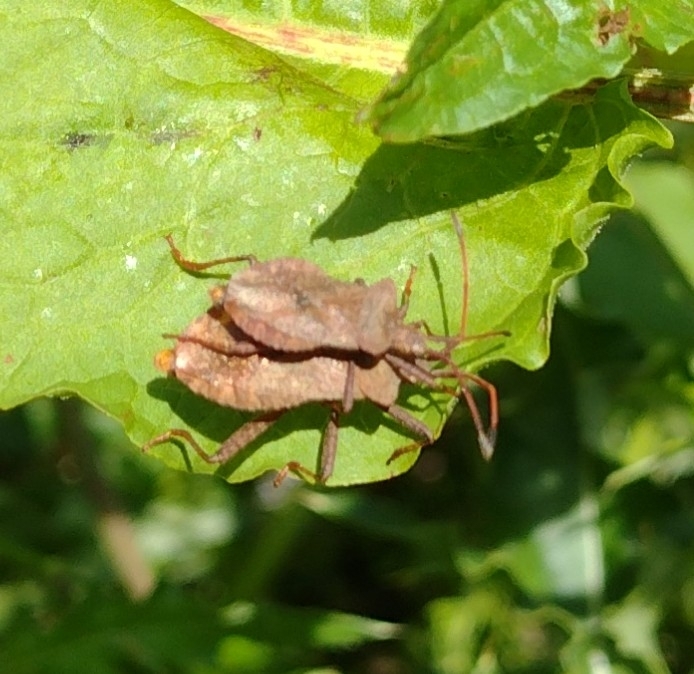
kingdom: Animalia
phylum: Arthropoda
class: Insecta
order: Hemiptera
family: Coreidae
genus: Coreus
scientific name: Coreus marginatus
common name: Dock bug
